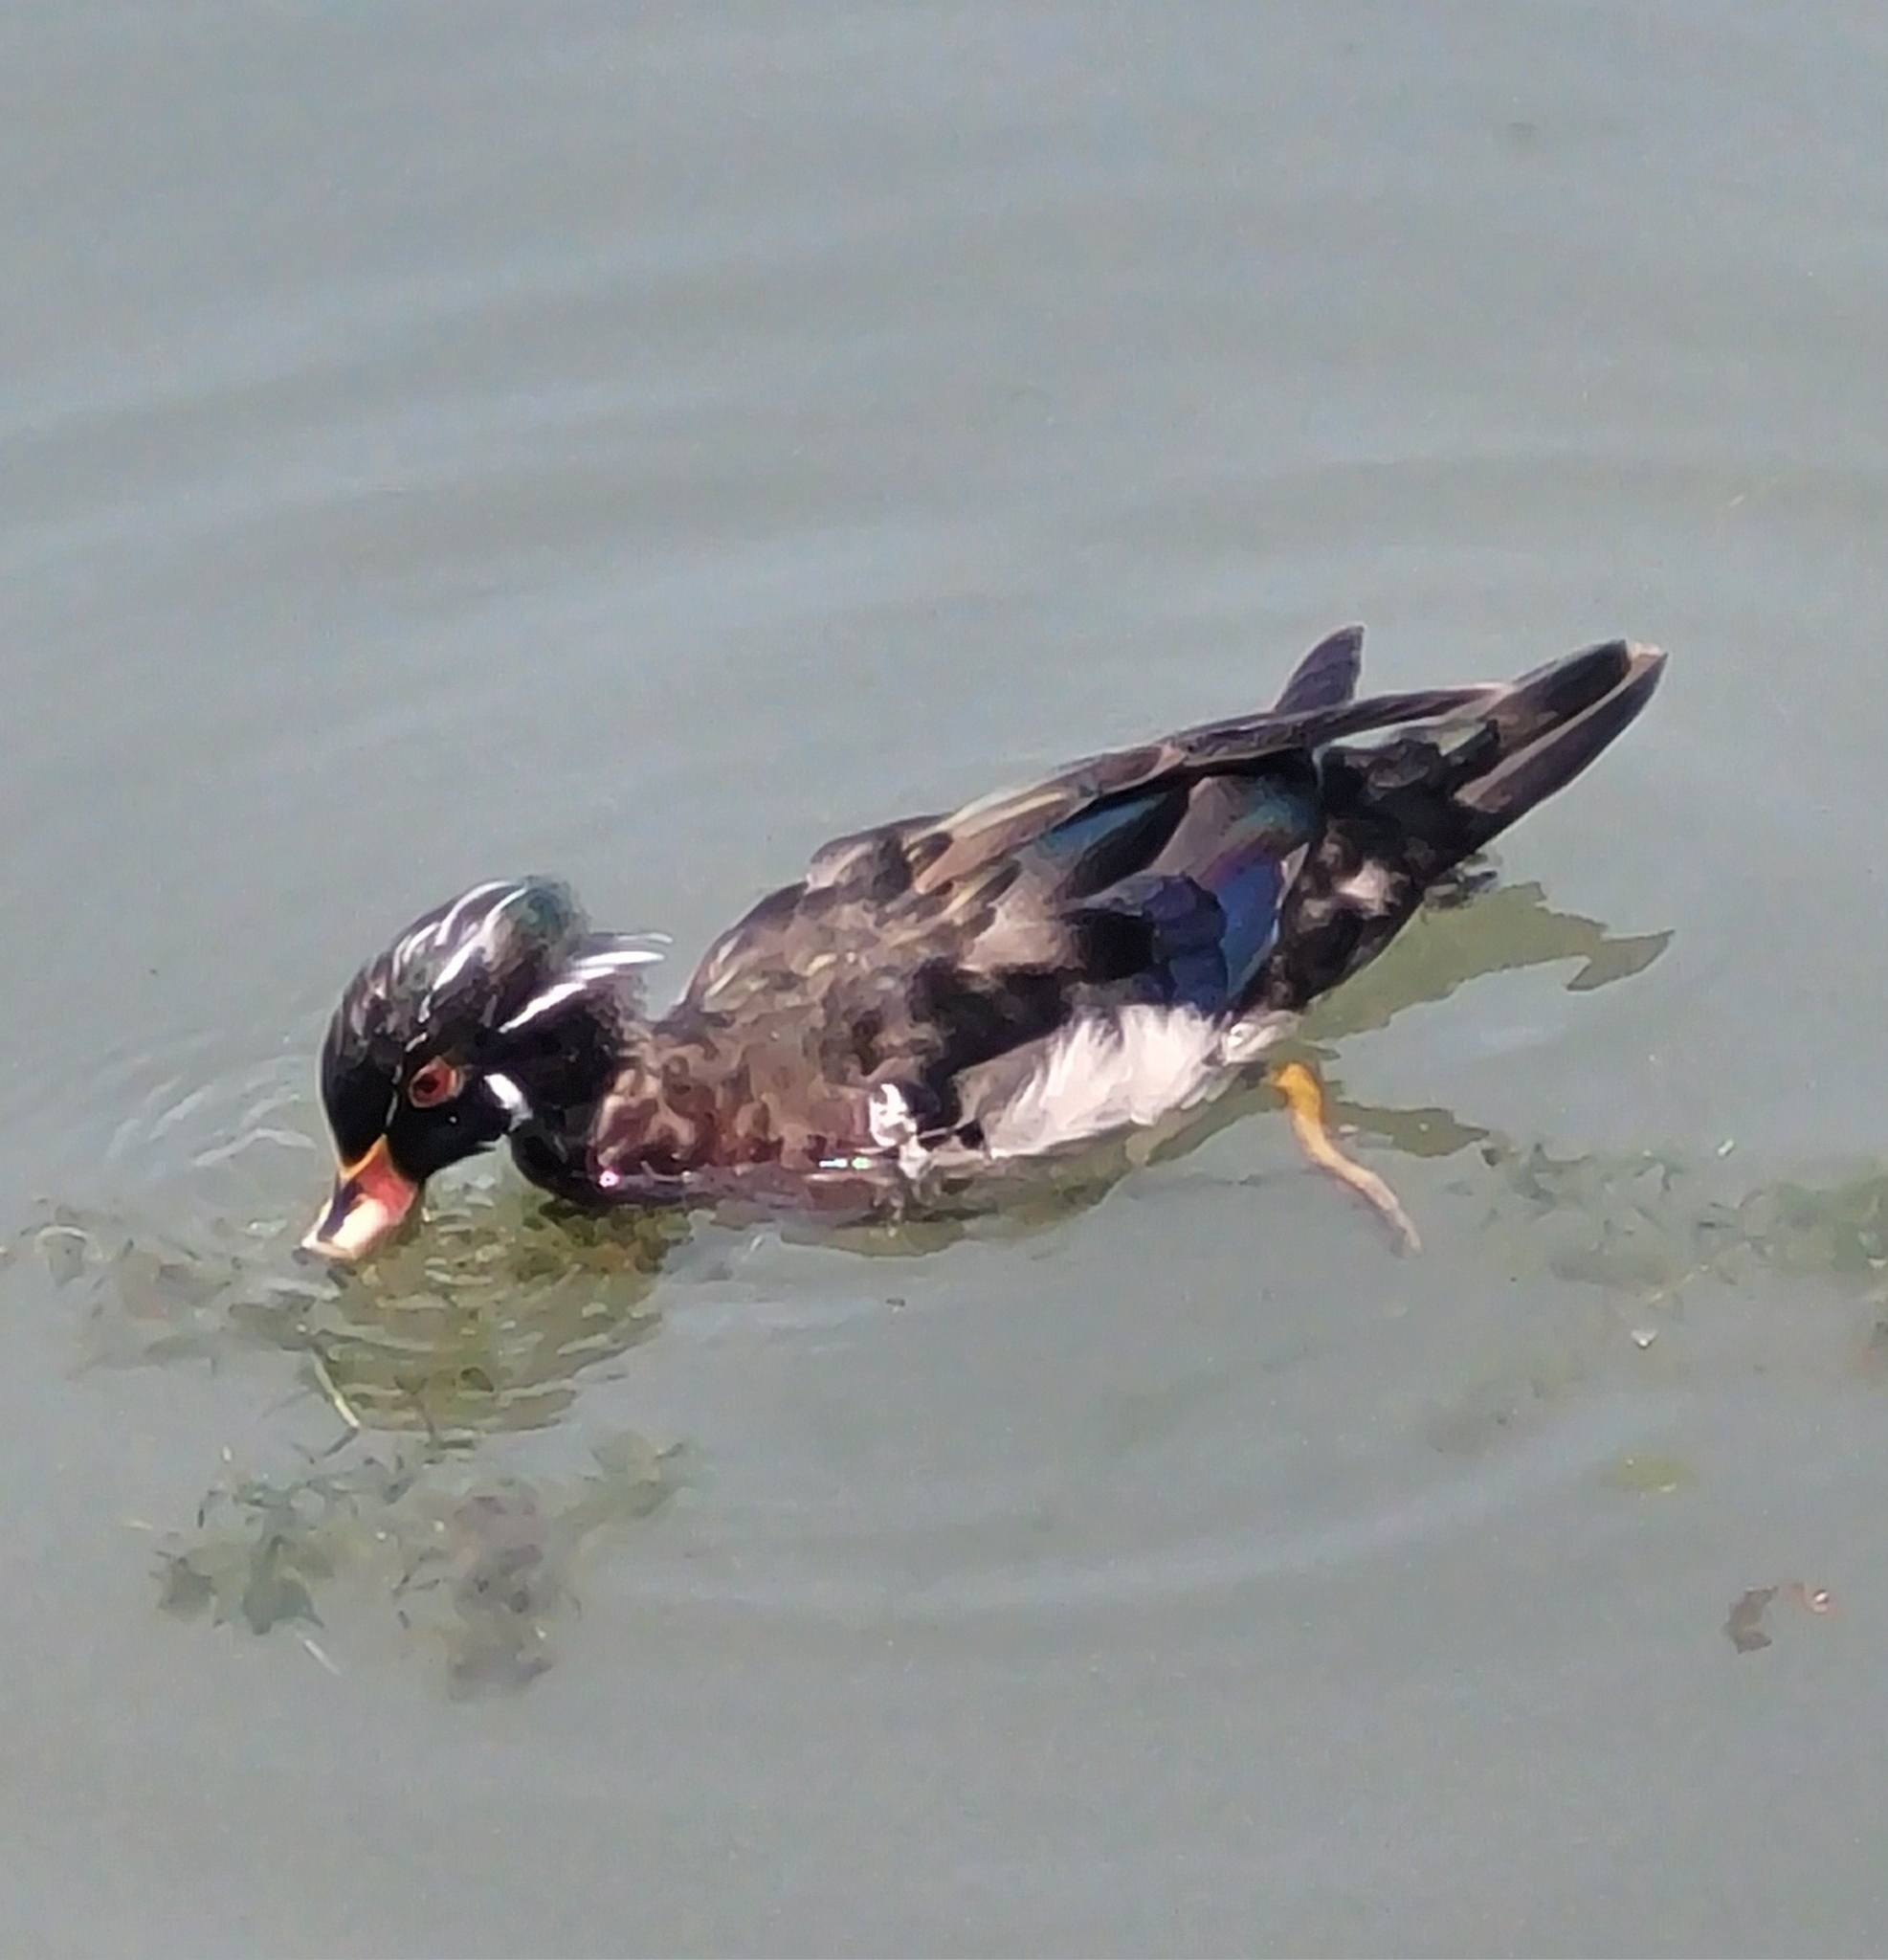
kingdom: Animalia
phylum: Chordata
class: Aves
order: Anseriformes
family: Anatidae
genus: Aix
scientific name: Aix sponsa
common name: Wood duck
